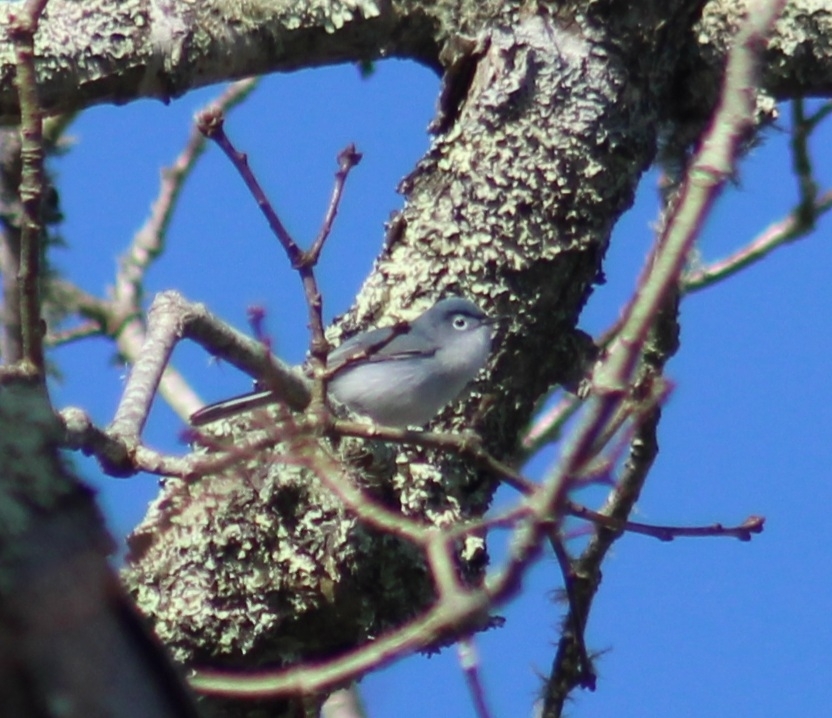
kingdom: Animalia
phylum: Chordata
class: Aves
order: Passeriformes
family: Polioptilidae
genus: Polioptila
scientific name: Polioptila caerulea
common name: Blue-gray gnatcatcher
